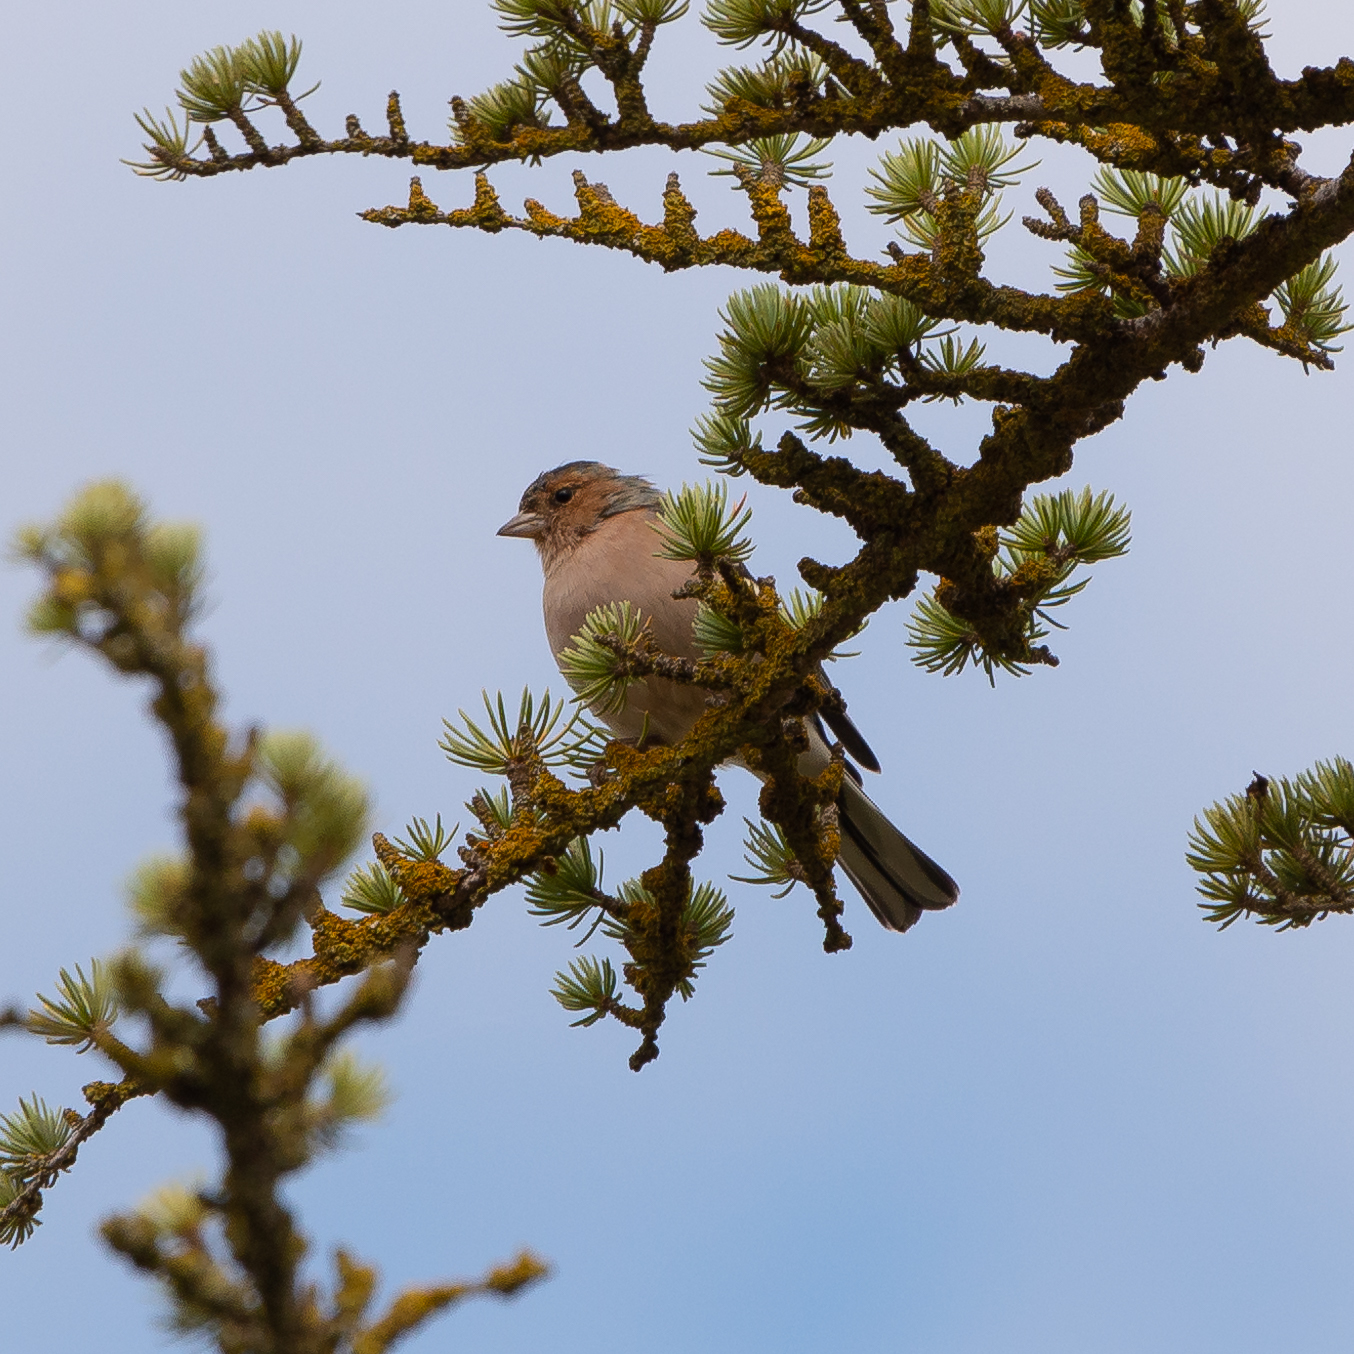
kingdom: Animalia
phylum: Chordata
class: Aves
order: Passeriformes
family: Fringillidae
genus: Fringilla
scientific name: Fringilla coelebs
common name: Common chaffinch
